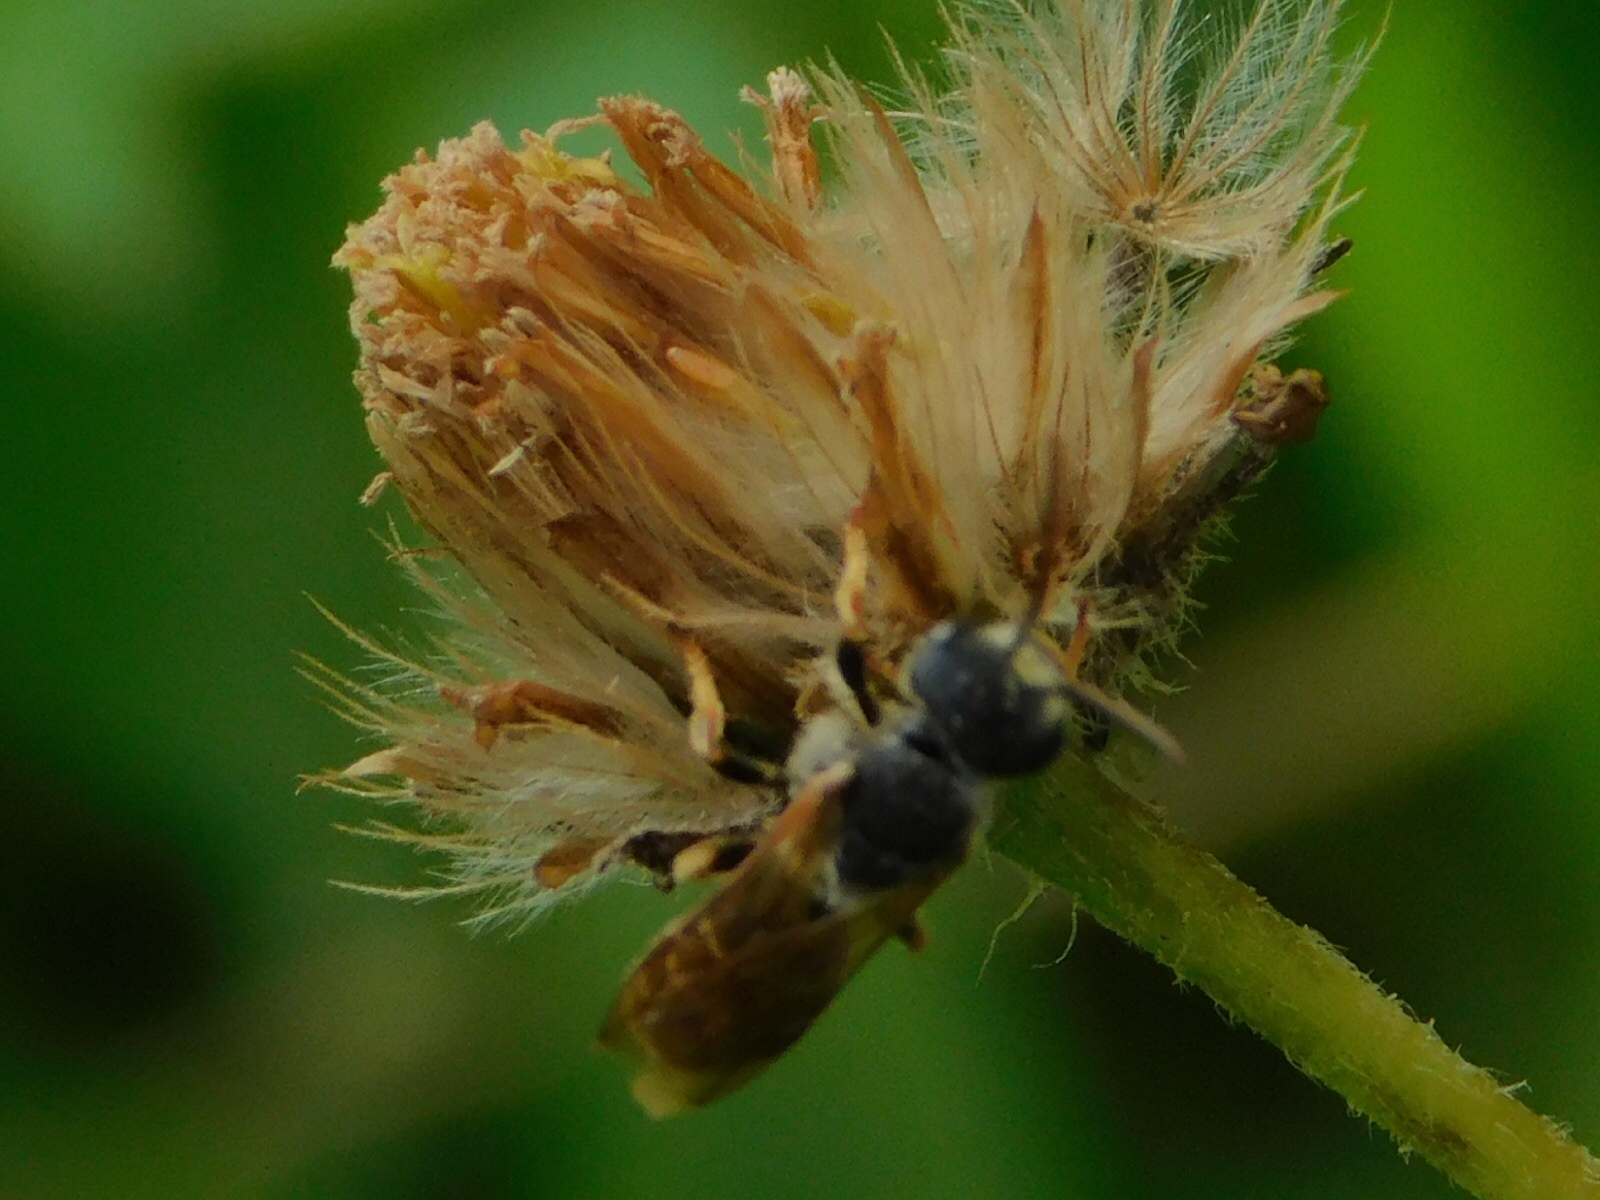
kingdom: Animalia
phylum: Arthropoda
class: Insecta
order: Hymenoptera
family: Halictidae
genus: Halictus
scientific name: Halictus poeyi
